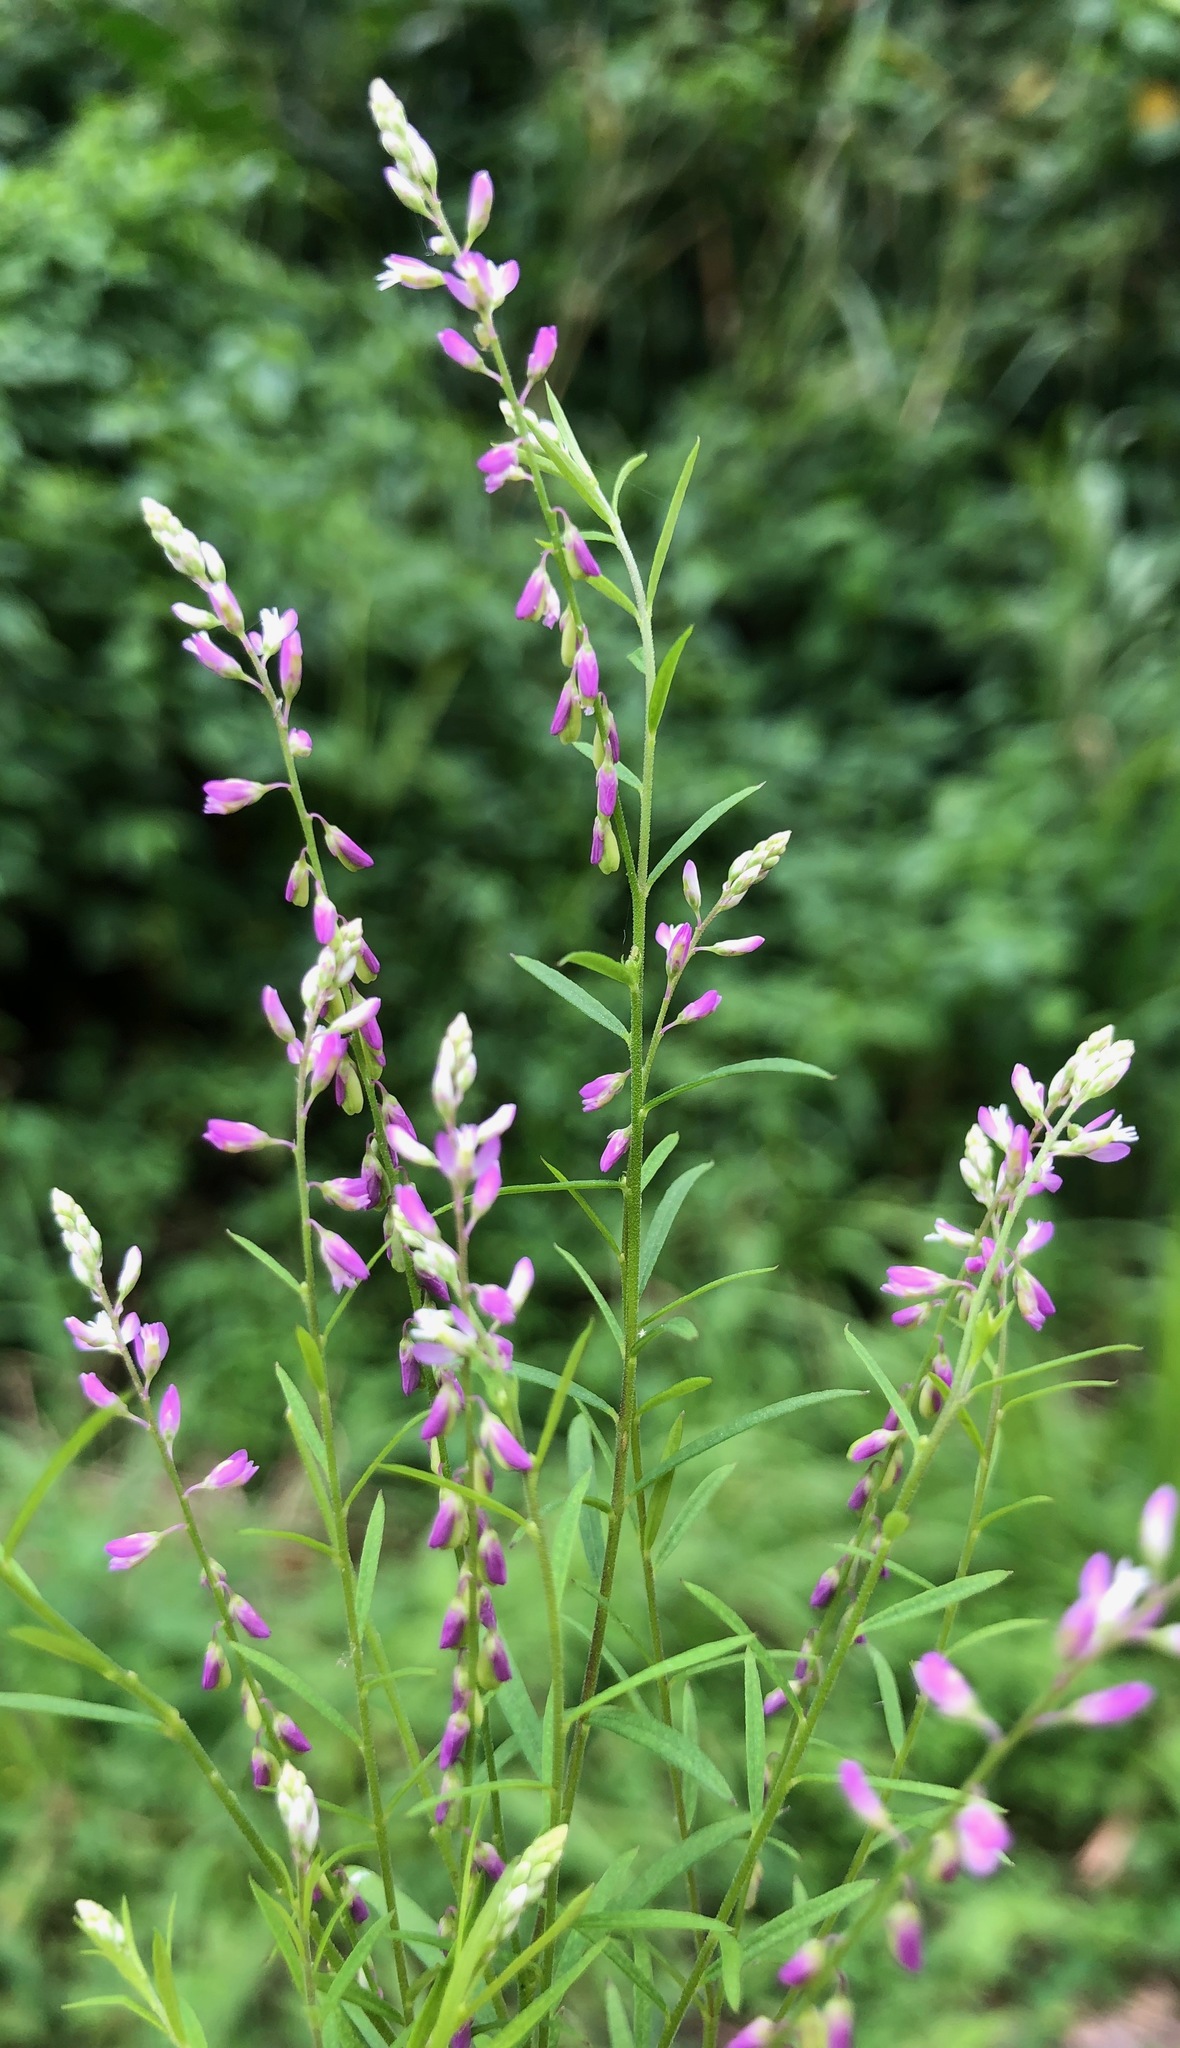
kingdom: Plantae
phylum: Tracheophyta
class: Magnoliopsida
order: Fabales
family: Polygalaceae
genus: Polygala
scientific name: Polygala paniculata
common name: Orosne
